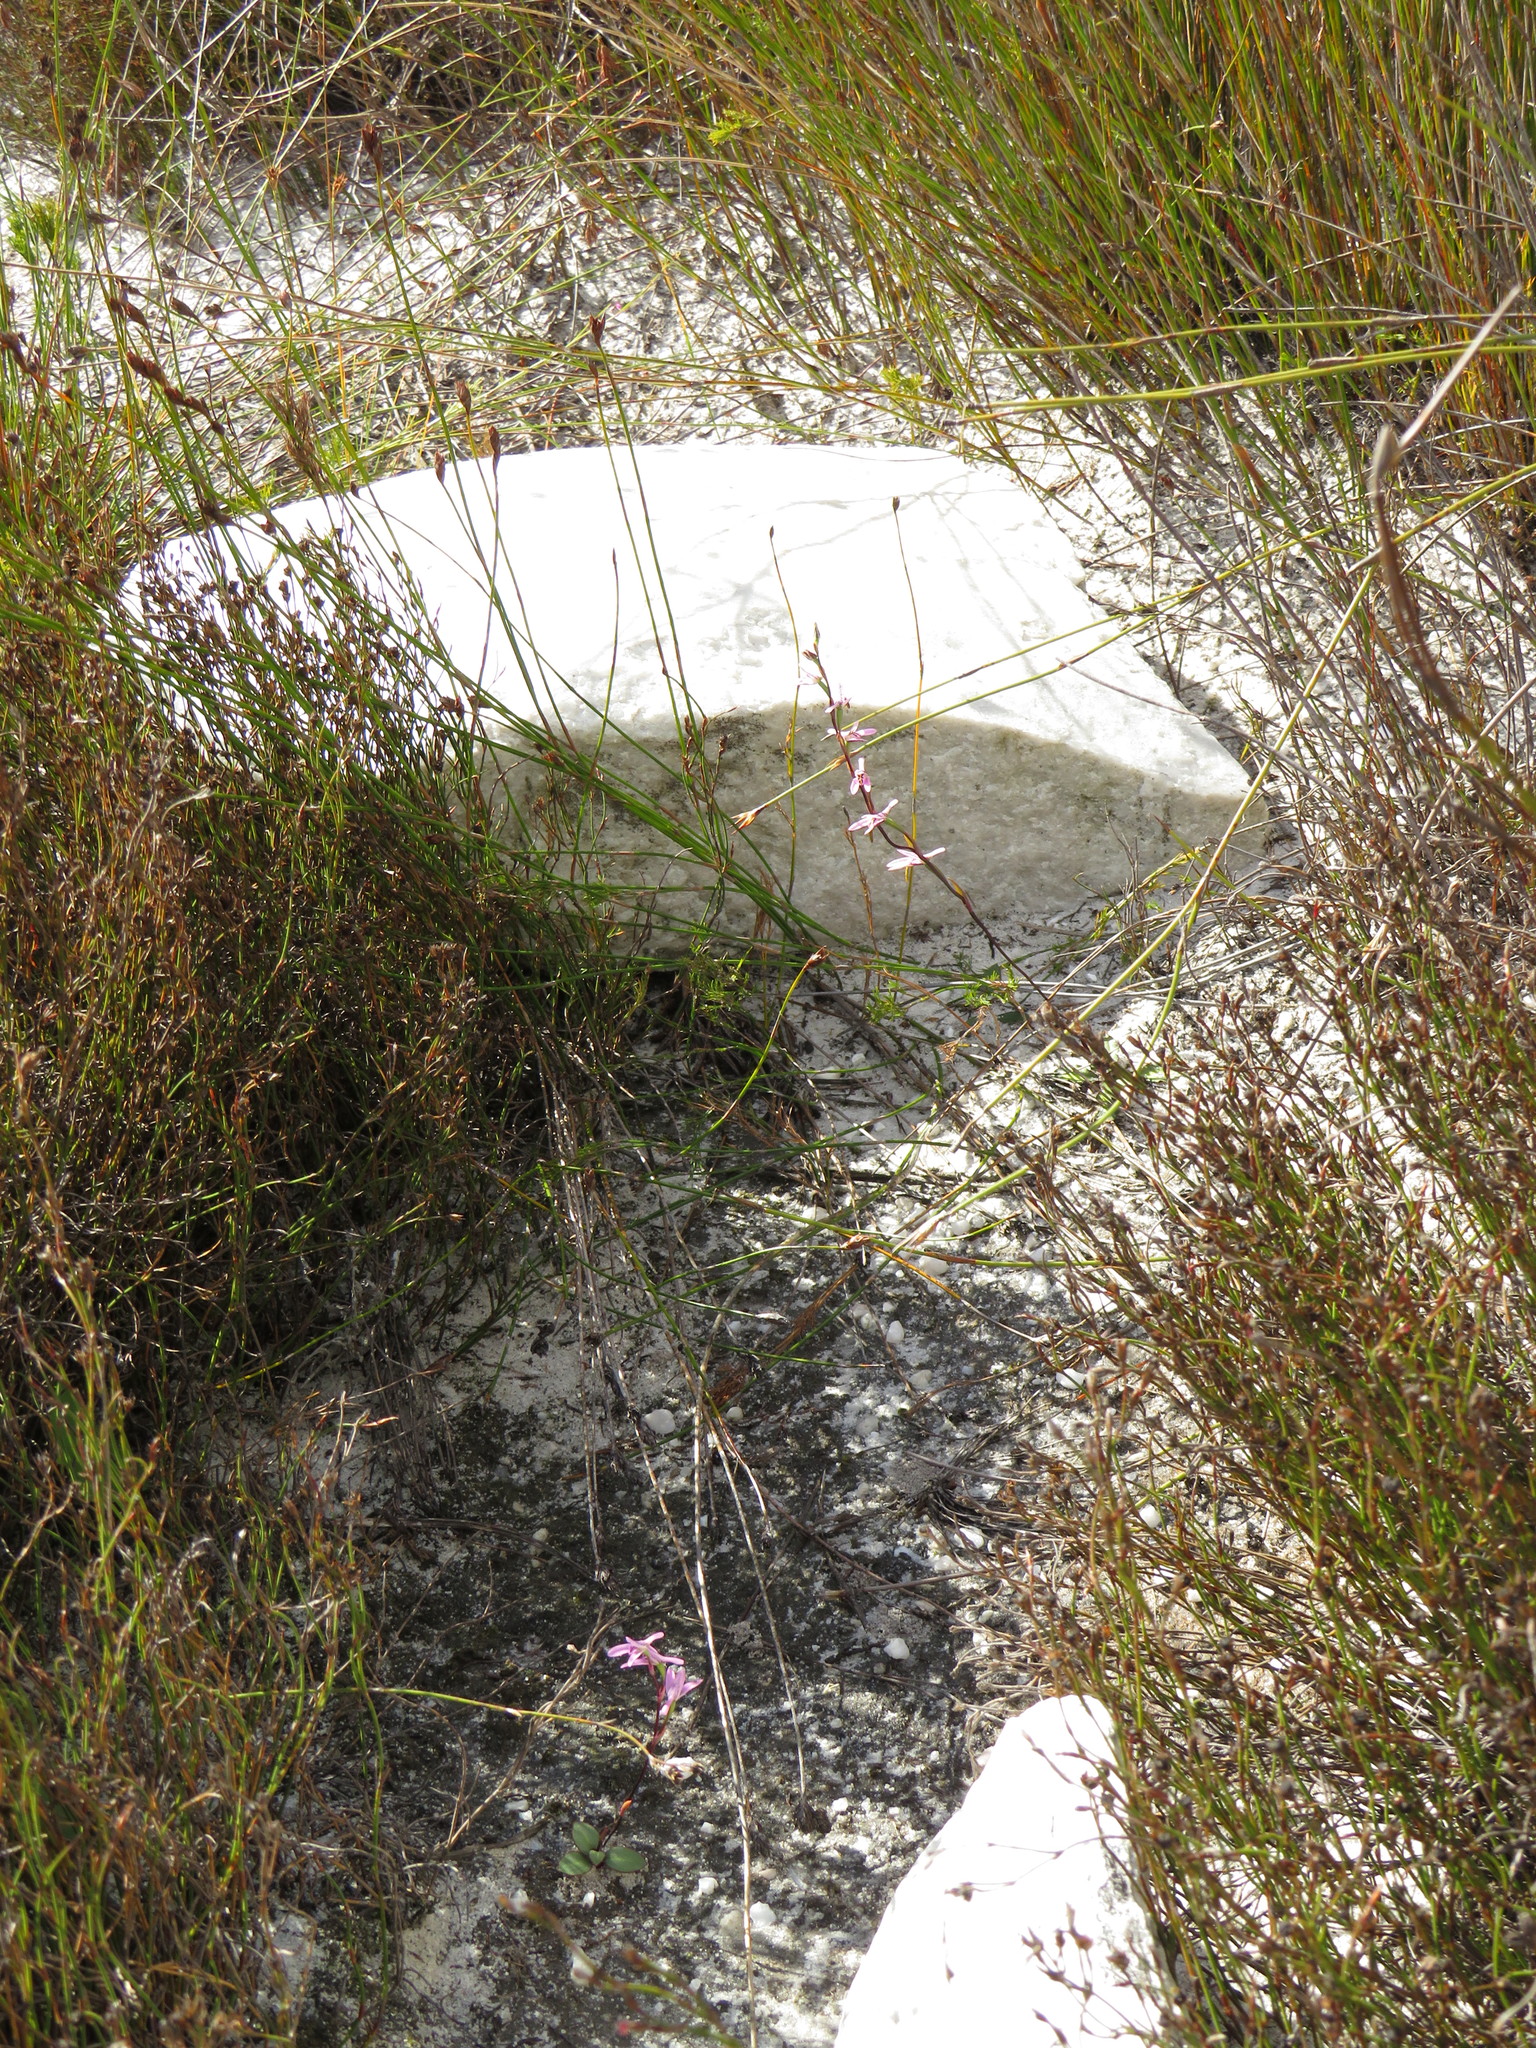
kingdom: Plantae
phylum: Tracheophyta
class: Liliopsida
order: Asparagales
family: Orchidaceae
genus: Disa
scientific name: Disa obliqua
